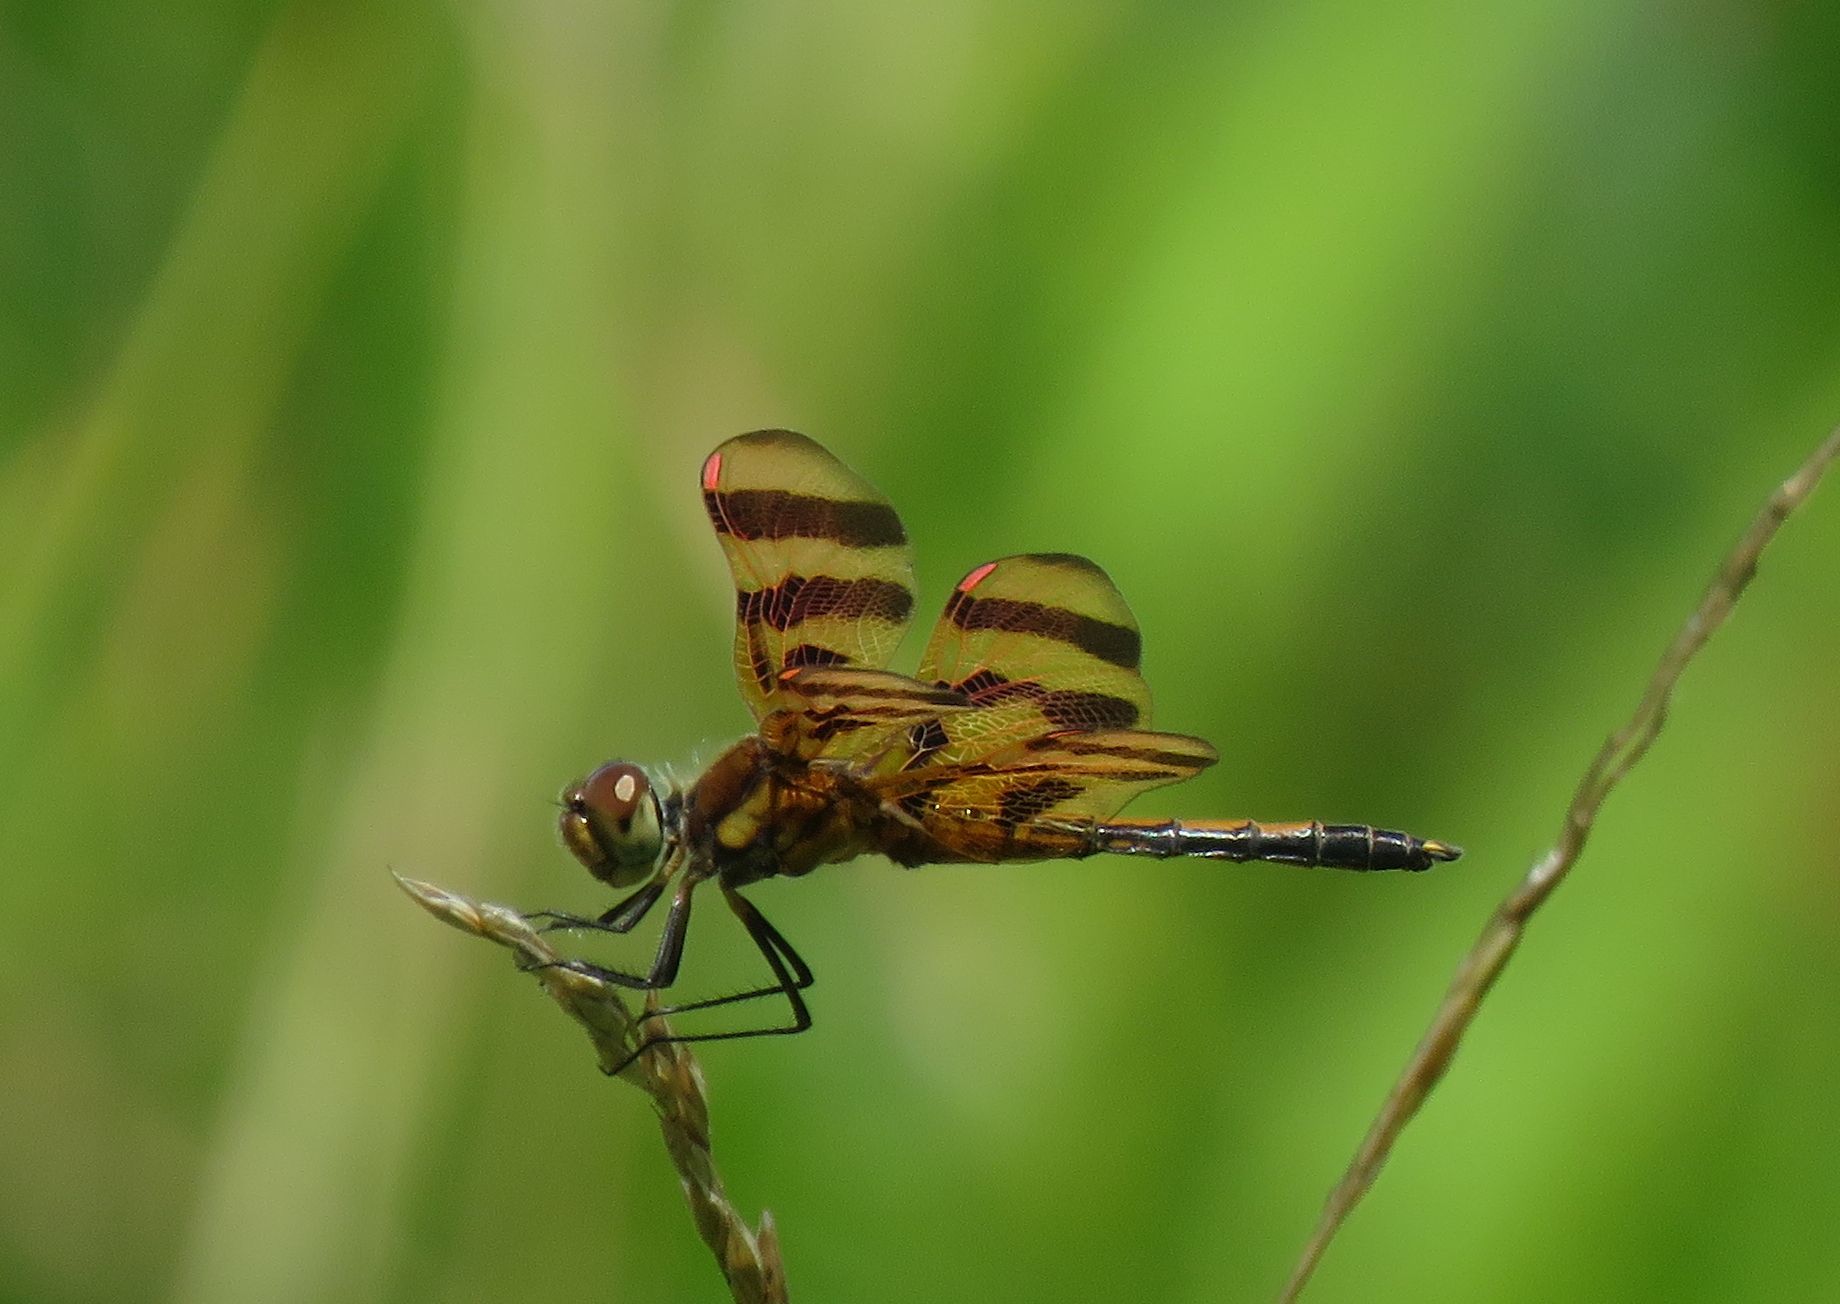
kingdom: Animalia
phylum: Arthropoda
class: Insecta
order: Odonata
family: Libellulidae
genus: Celithemis
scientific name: Celithemis eponina
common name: Halloween pennant
